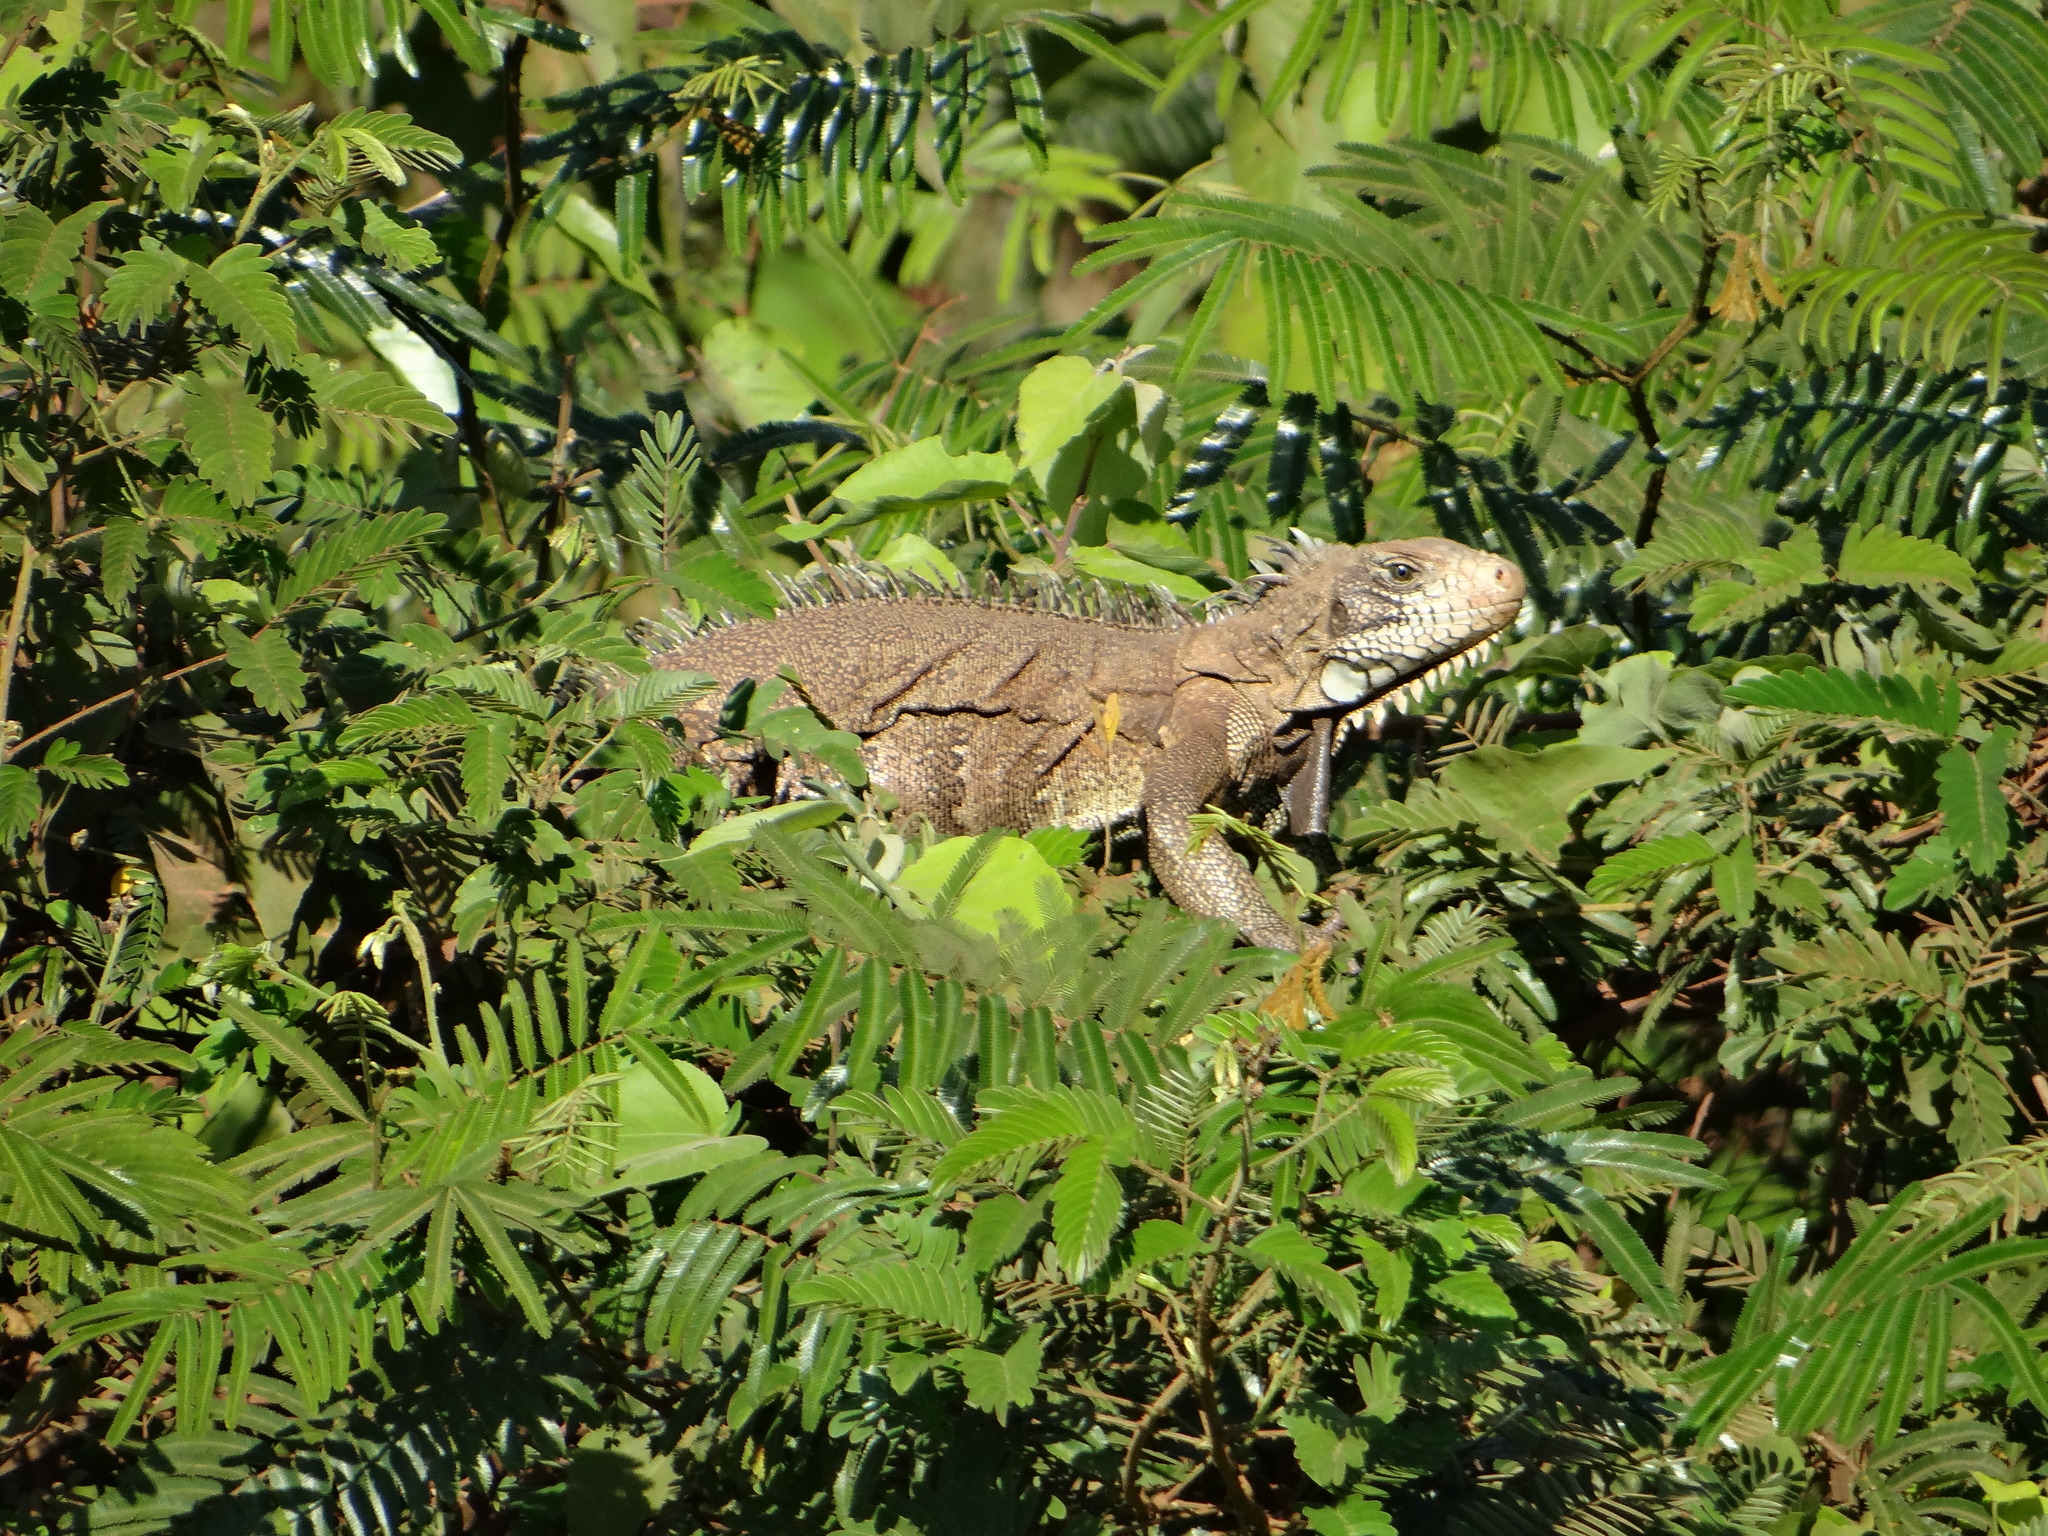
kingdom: Animalia
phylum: Chordata
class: Squamata
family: Iguanidae
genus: Iguana
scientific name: Iguana iguana
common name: Green iguana
